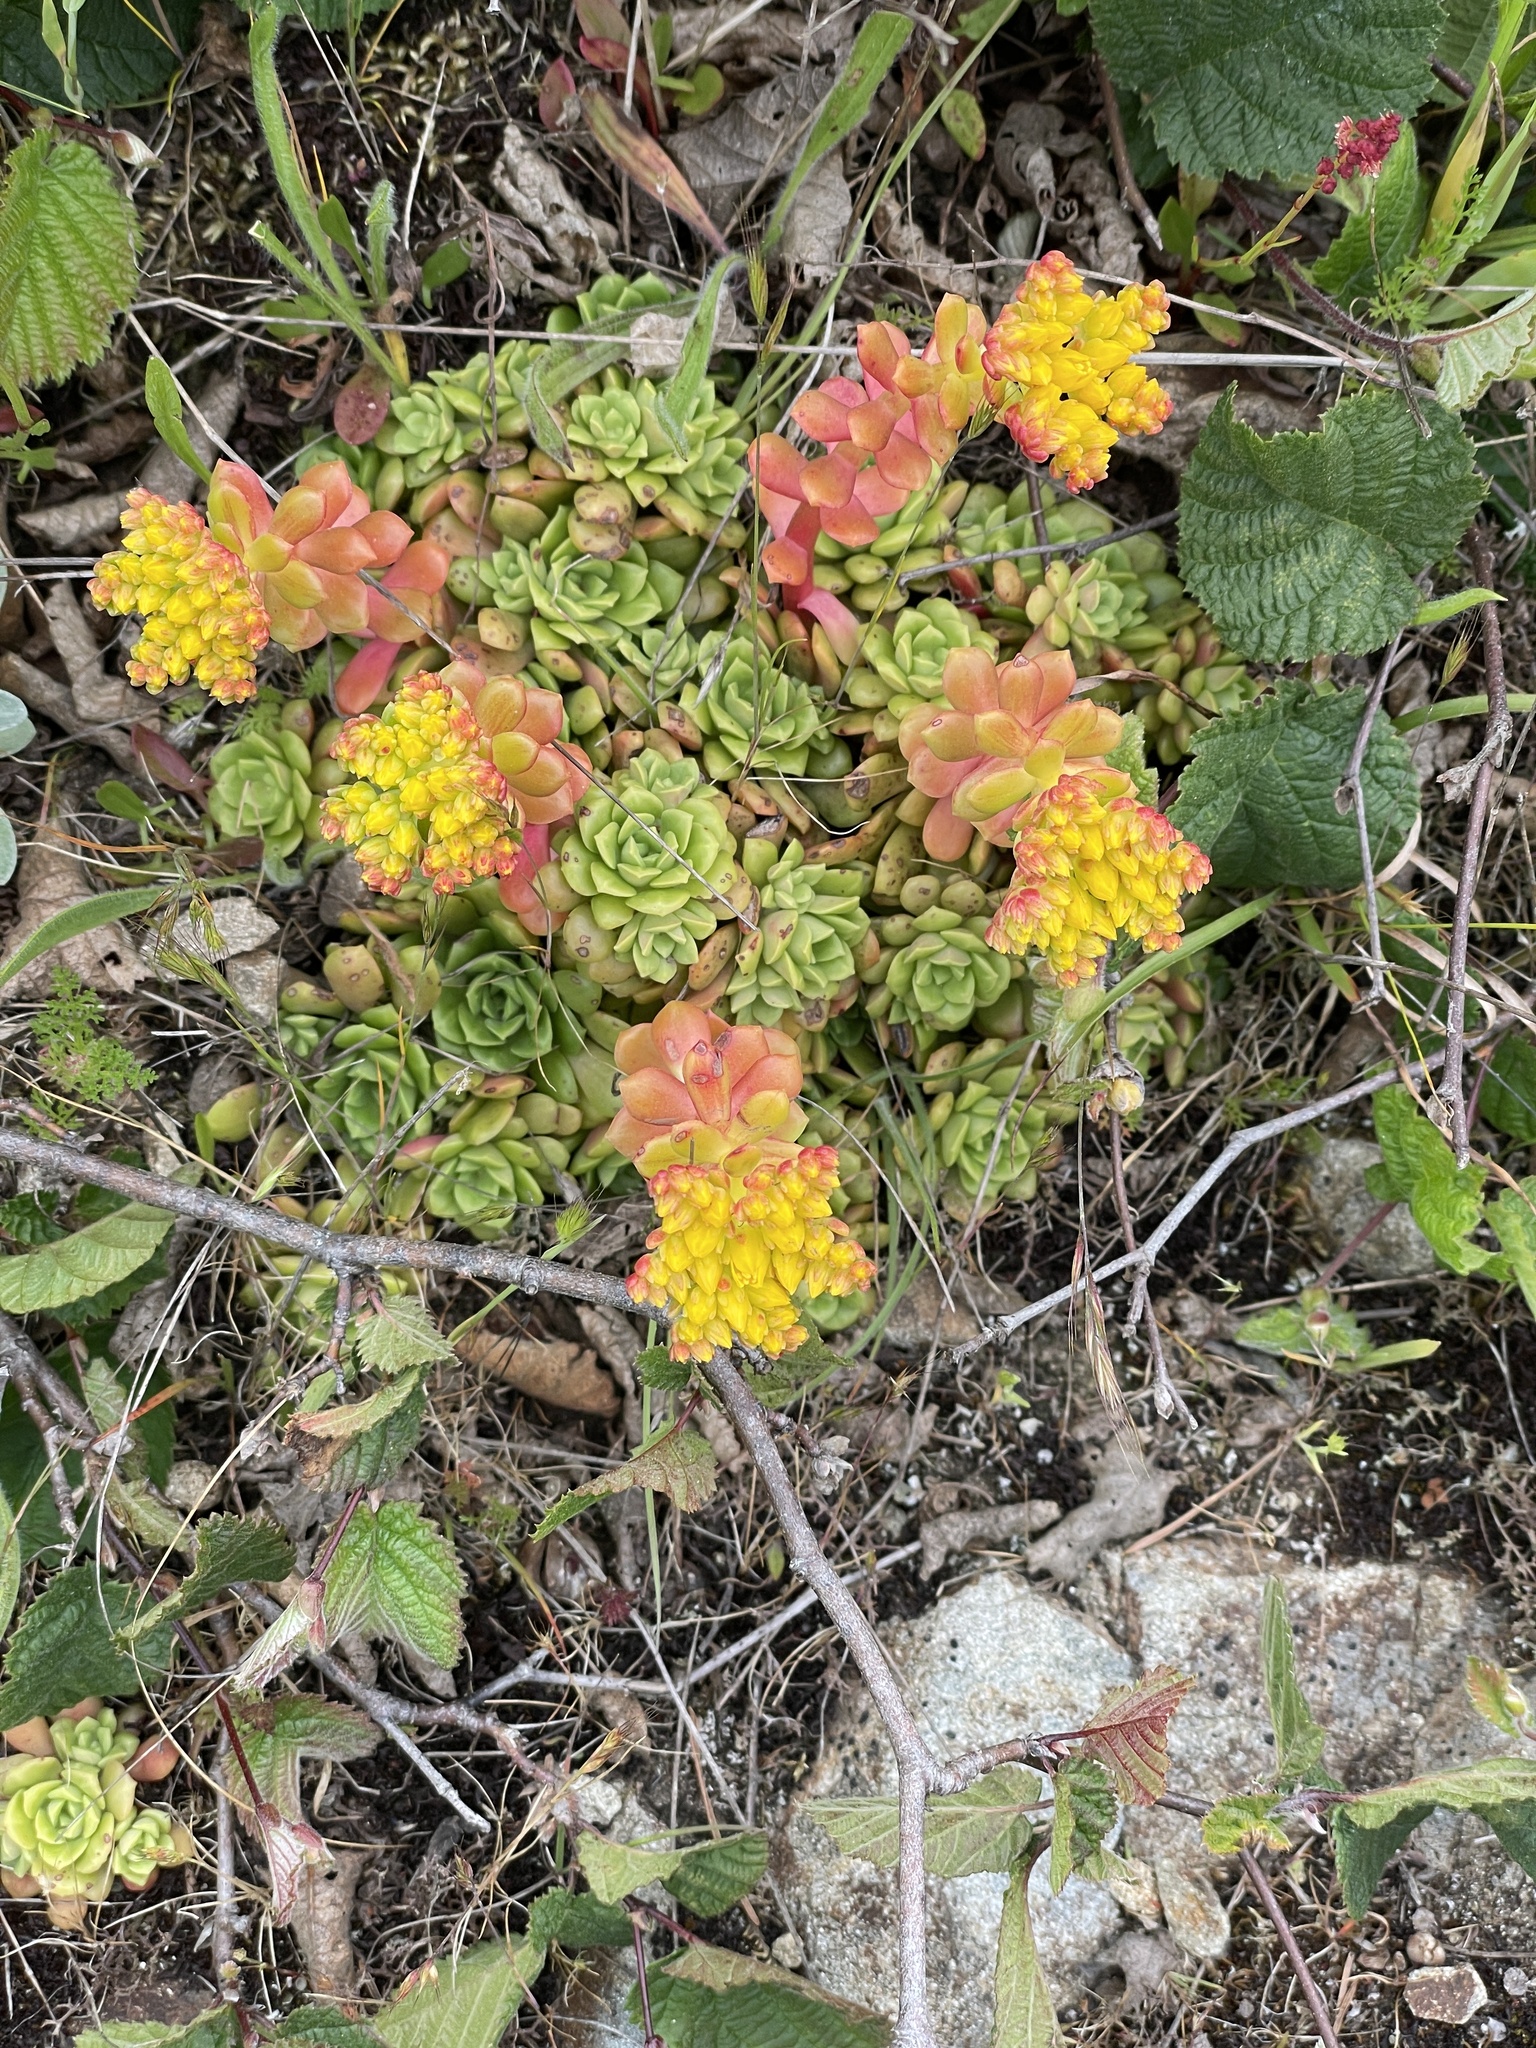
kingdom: Plantae
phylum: Tracheophyta
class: Magnoliopsida
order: Saxifragales
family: Crassulaceae
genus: Sedum
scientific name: Sedum spathulifolium
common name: Colorado stonecrop
